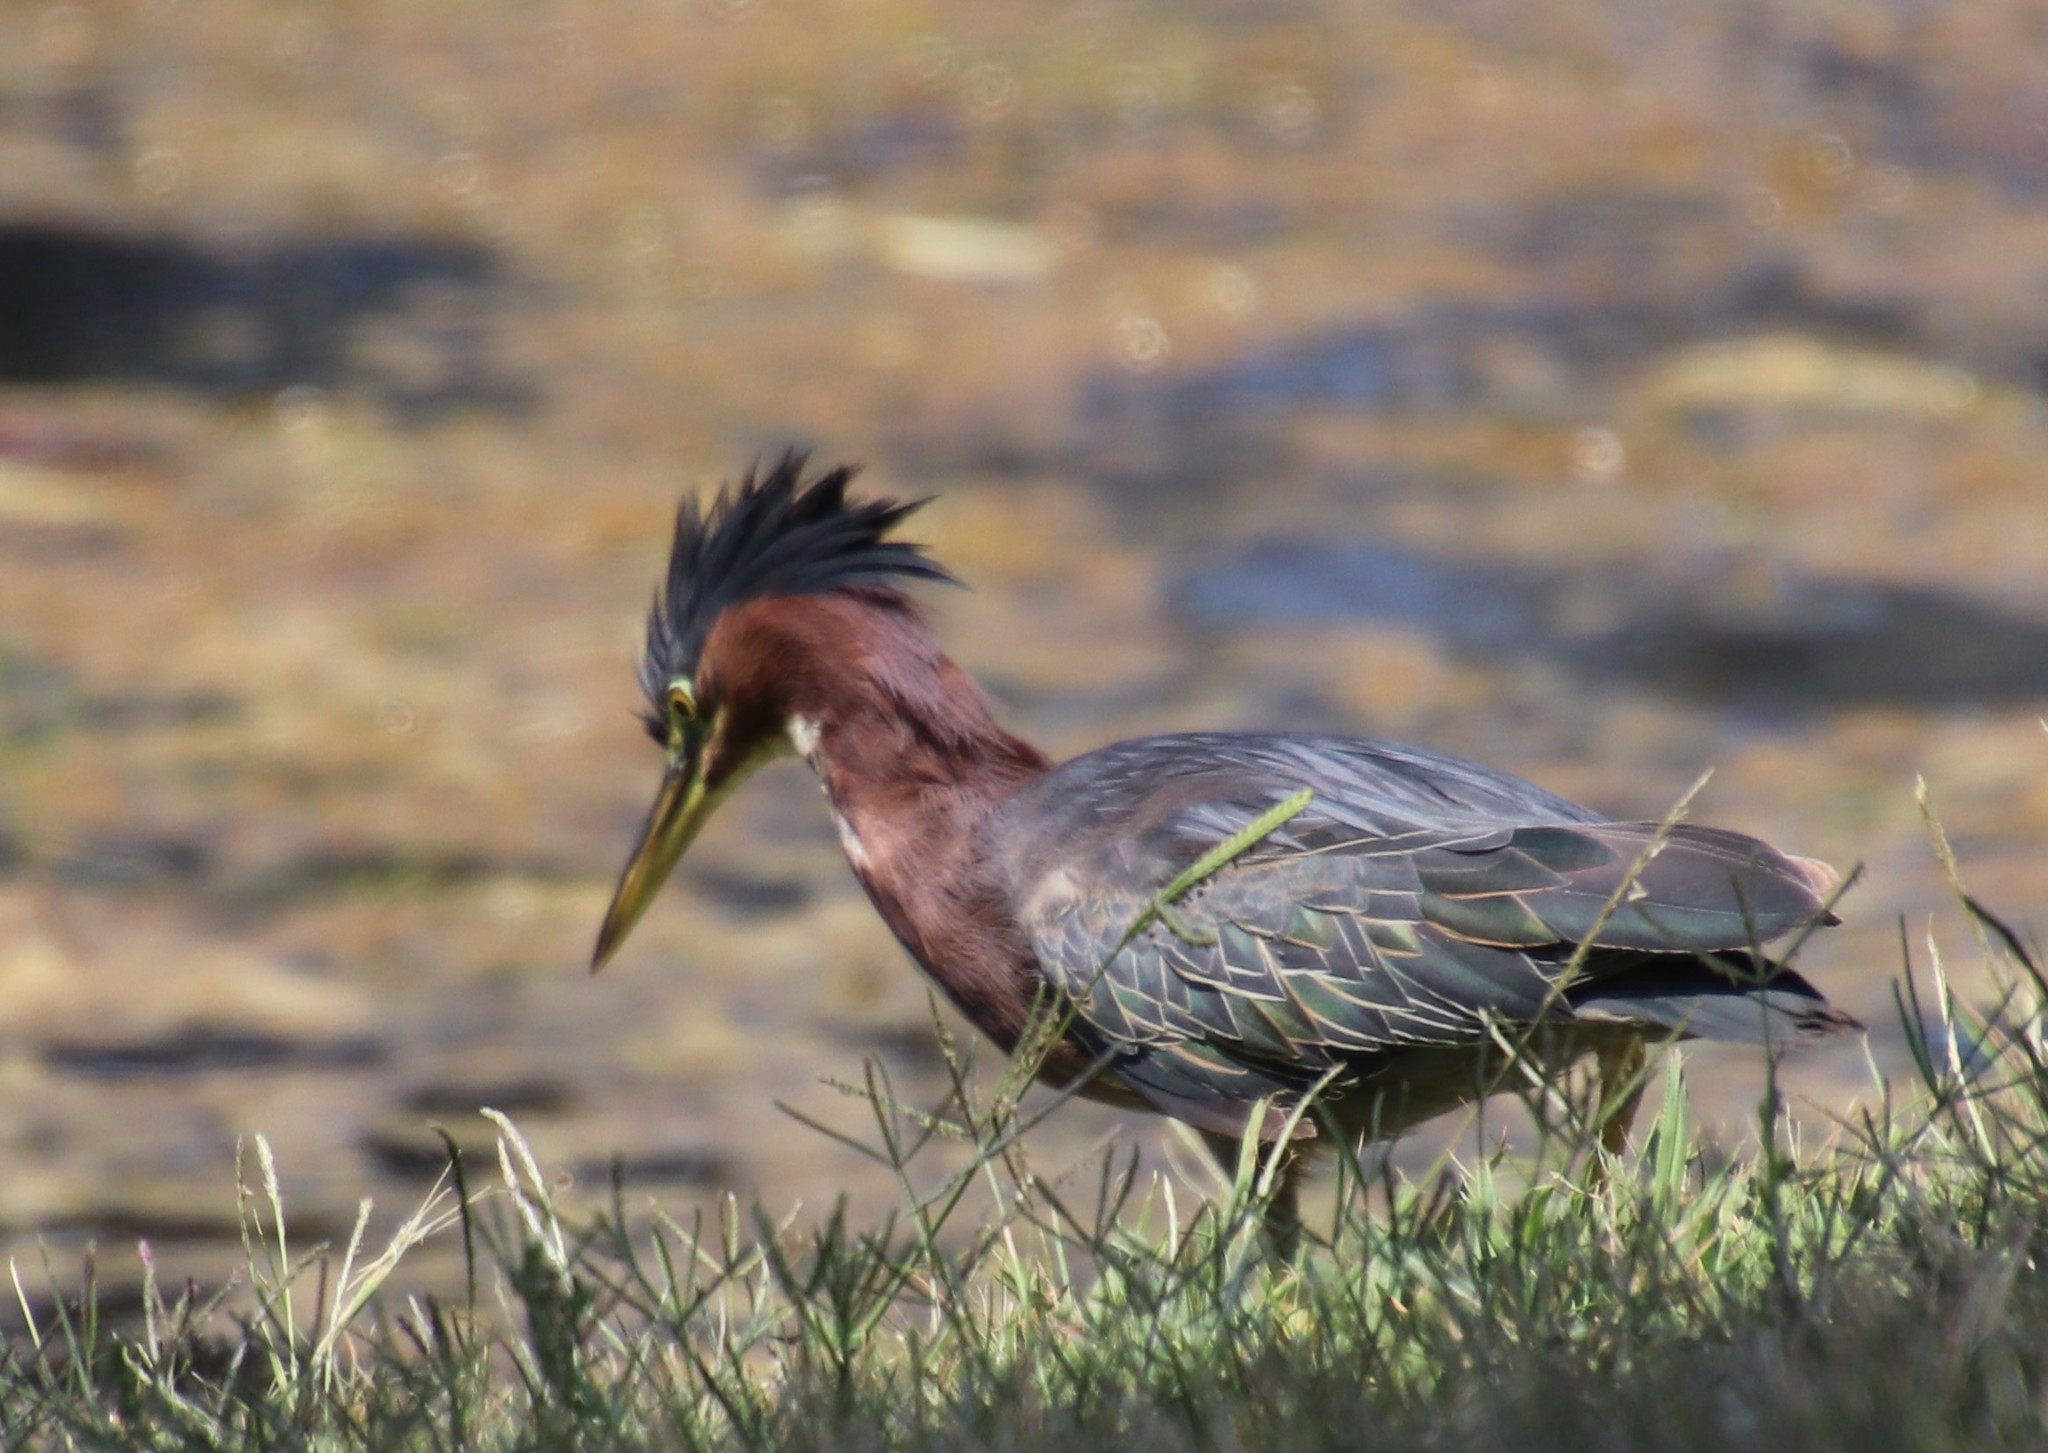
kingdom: Animalia
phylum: Chordata
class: Aves
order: Pelecaniformes
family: Ardeidae
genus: Butorides
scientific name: Butorides virescens
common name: Green heron
